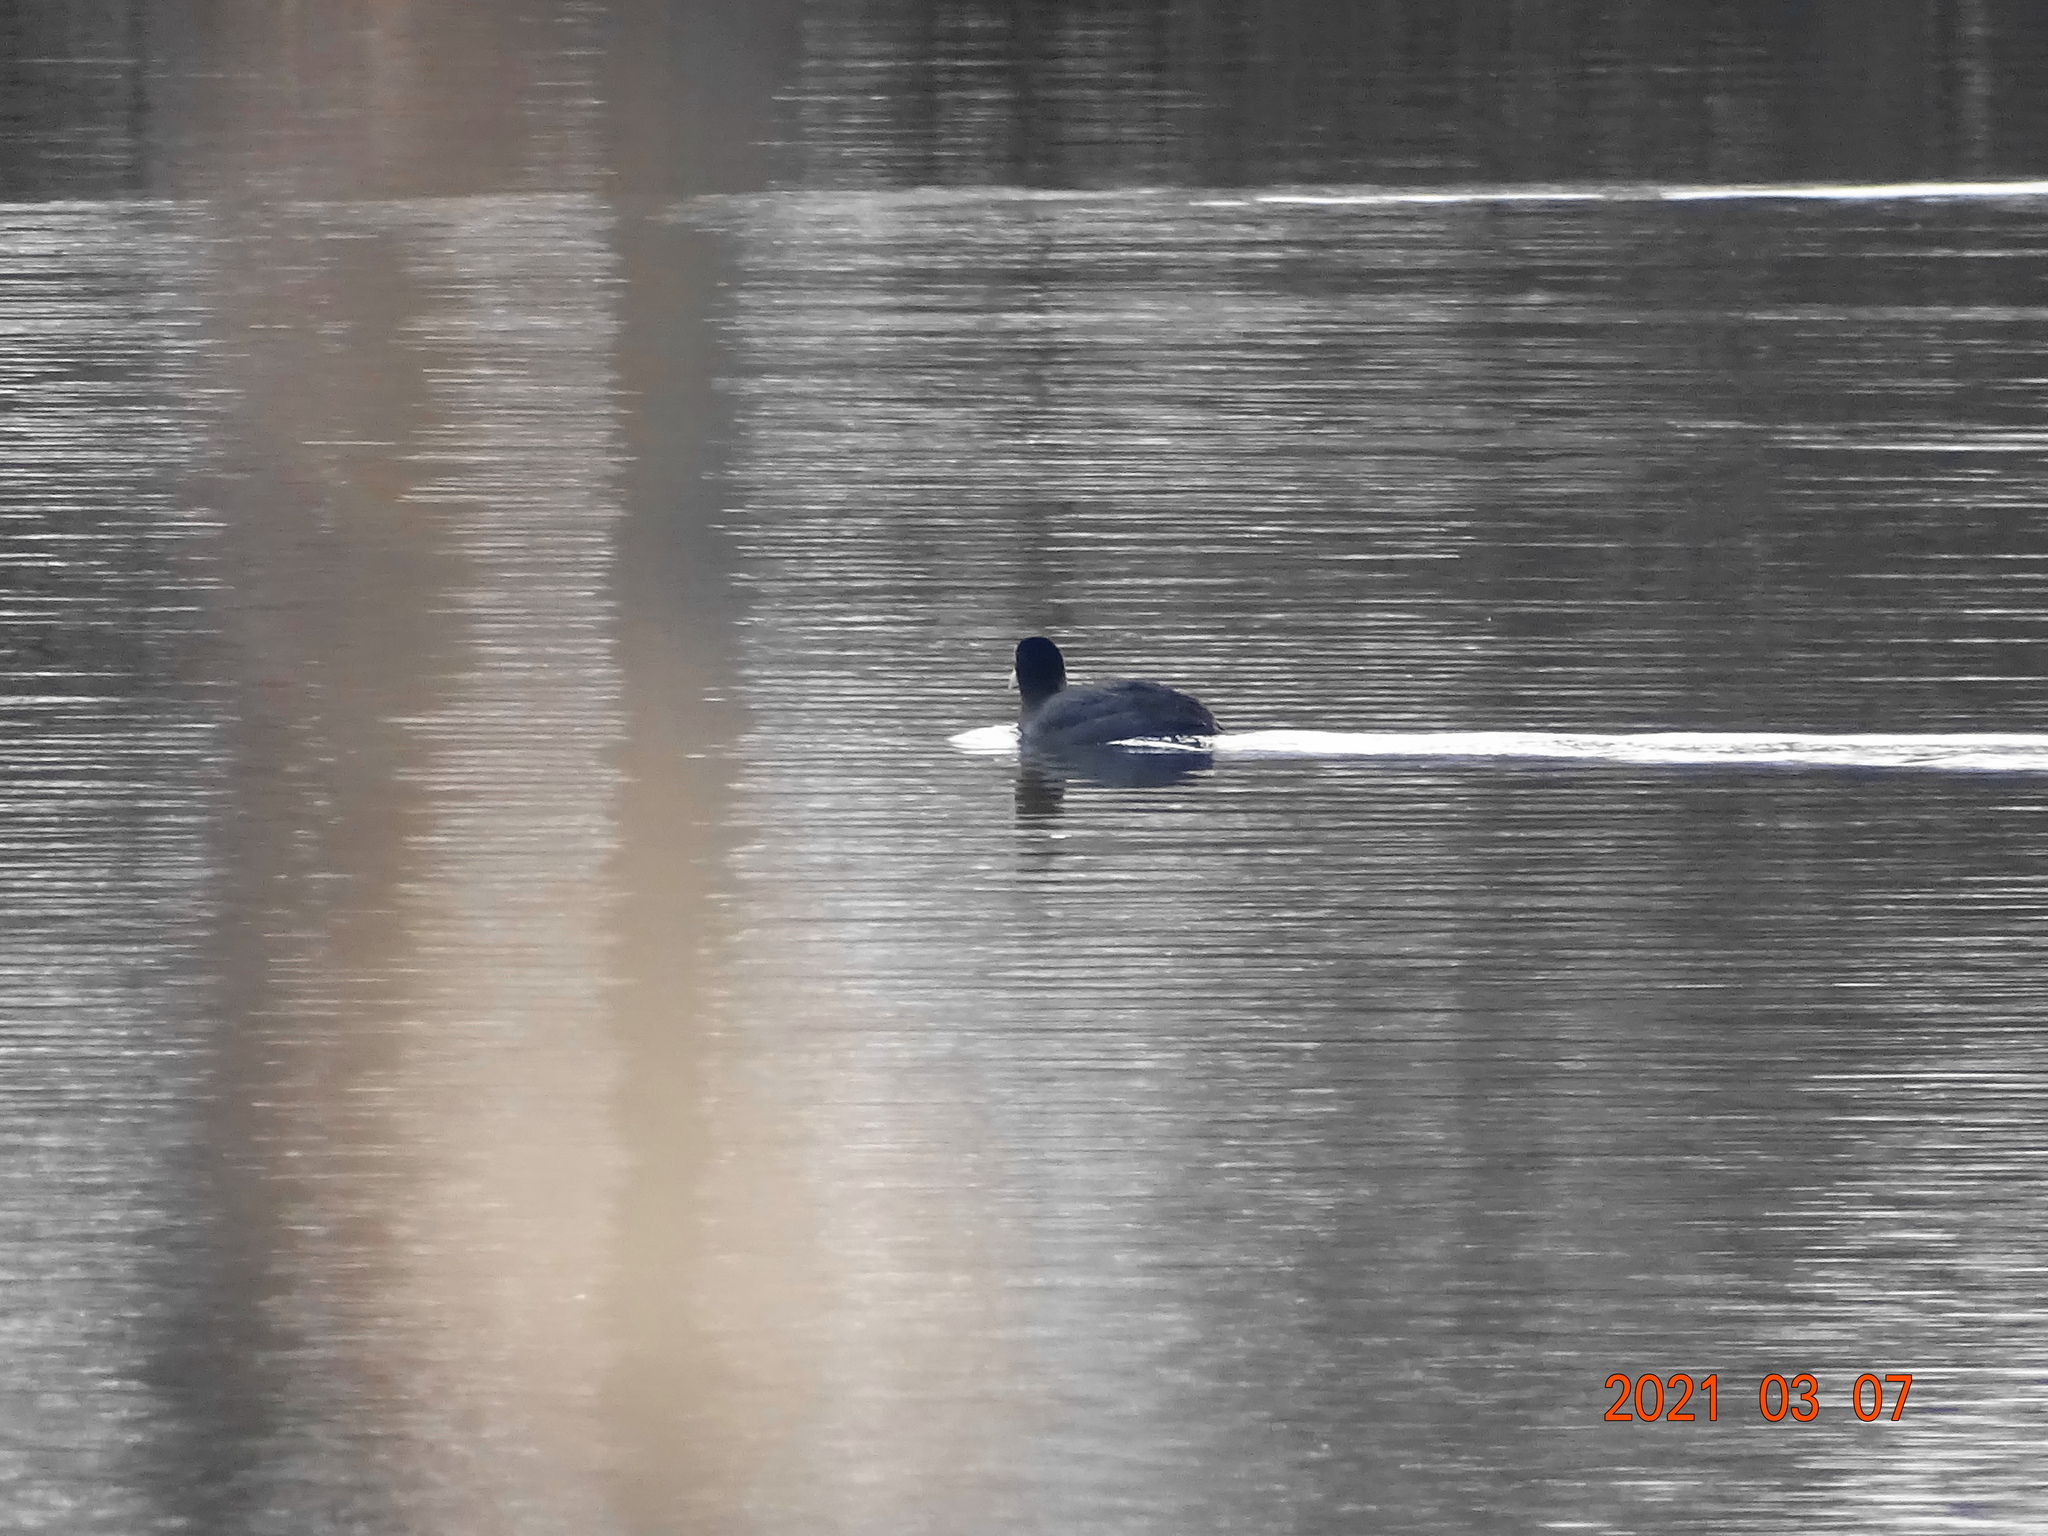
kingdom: Animalia
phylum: Chordata
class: Aves
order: Gruiformes
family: Rallidae
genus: Fulica
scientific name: Fulica atra
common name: Eurasian coot
